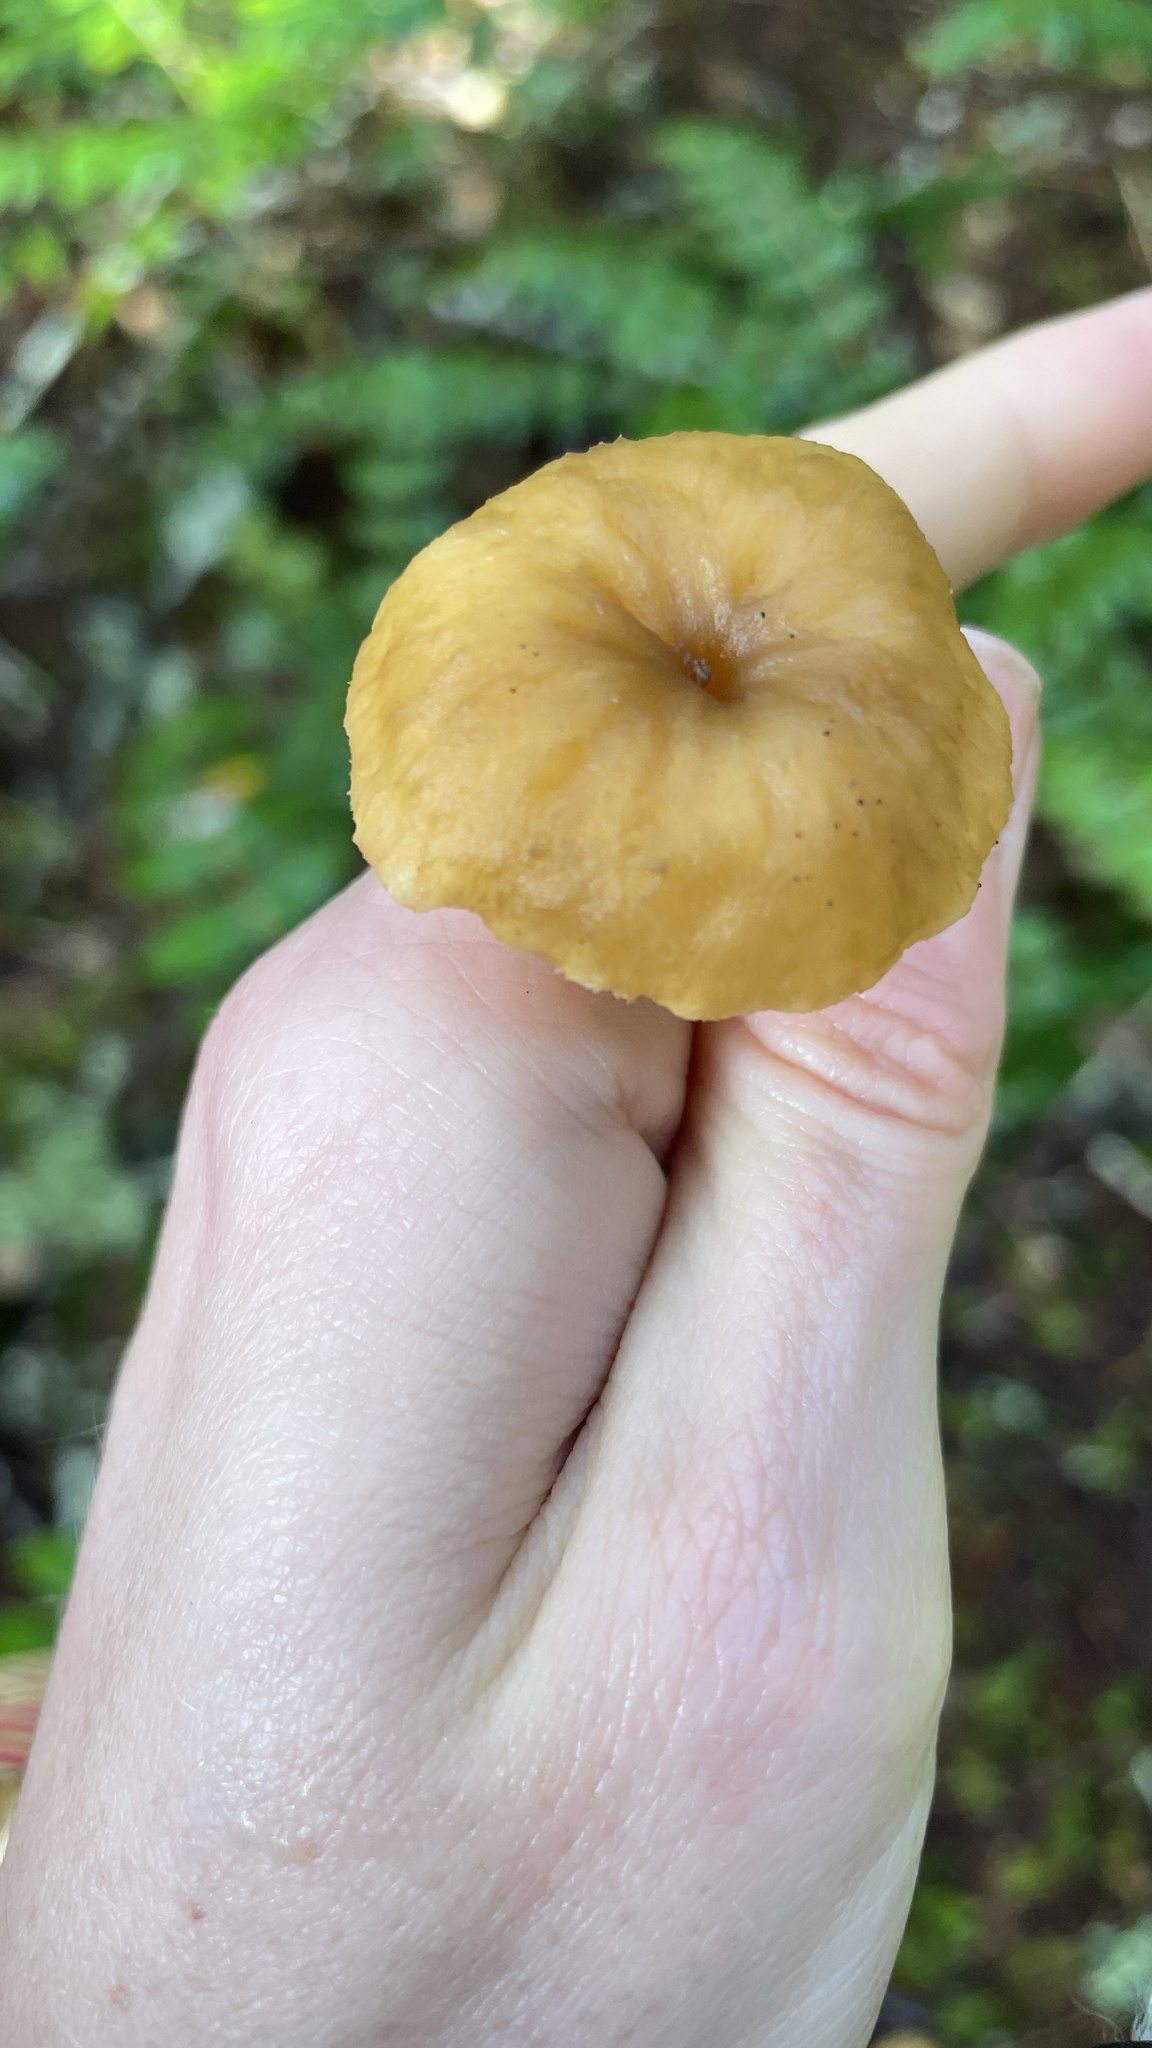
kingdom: Fungi
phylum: Basidiomycota
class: Agaricomycetes
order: Cantharellales
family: Hydnaceae
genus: Craterellus
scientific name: Craterellus tubaeformis
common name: Yellowfoot
